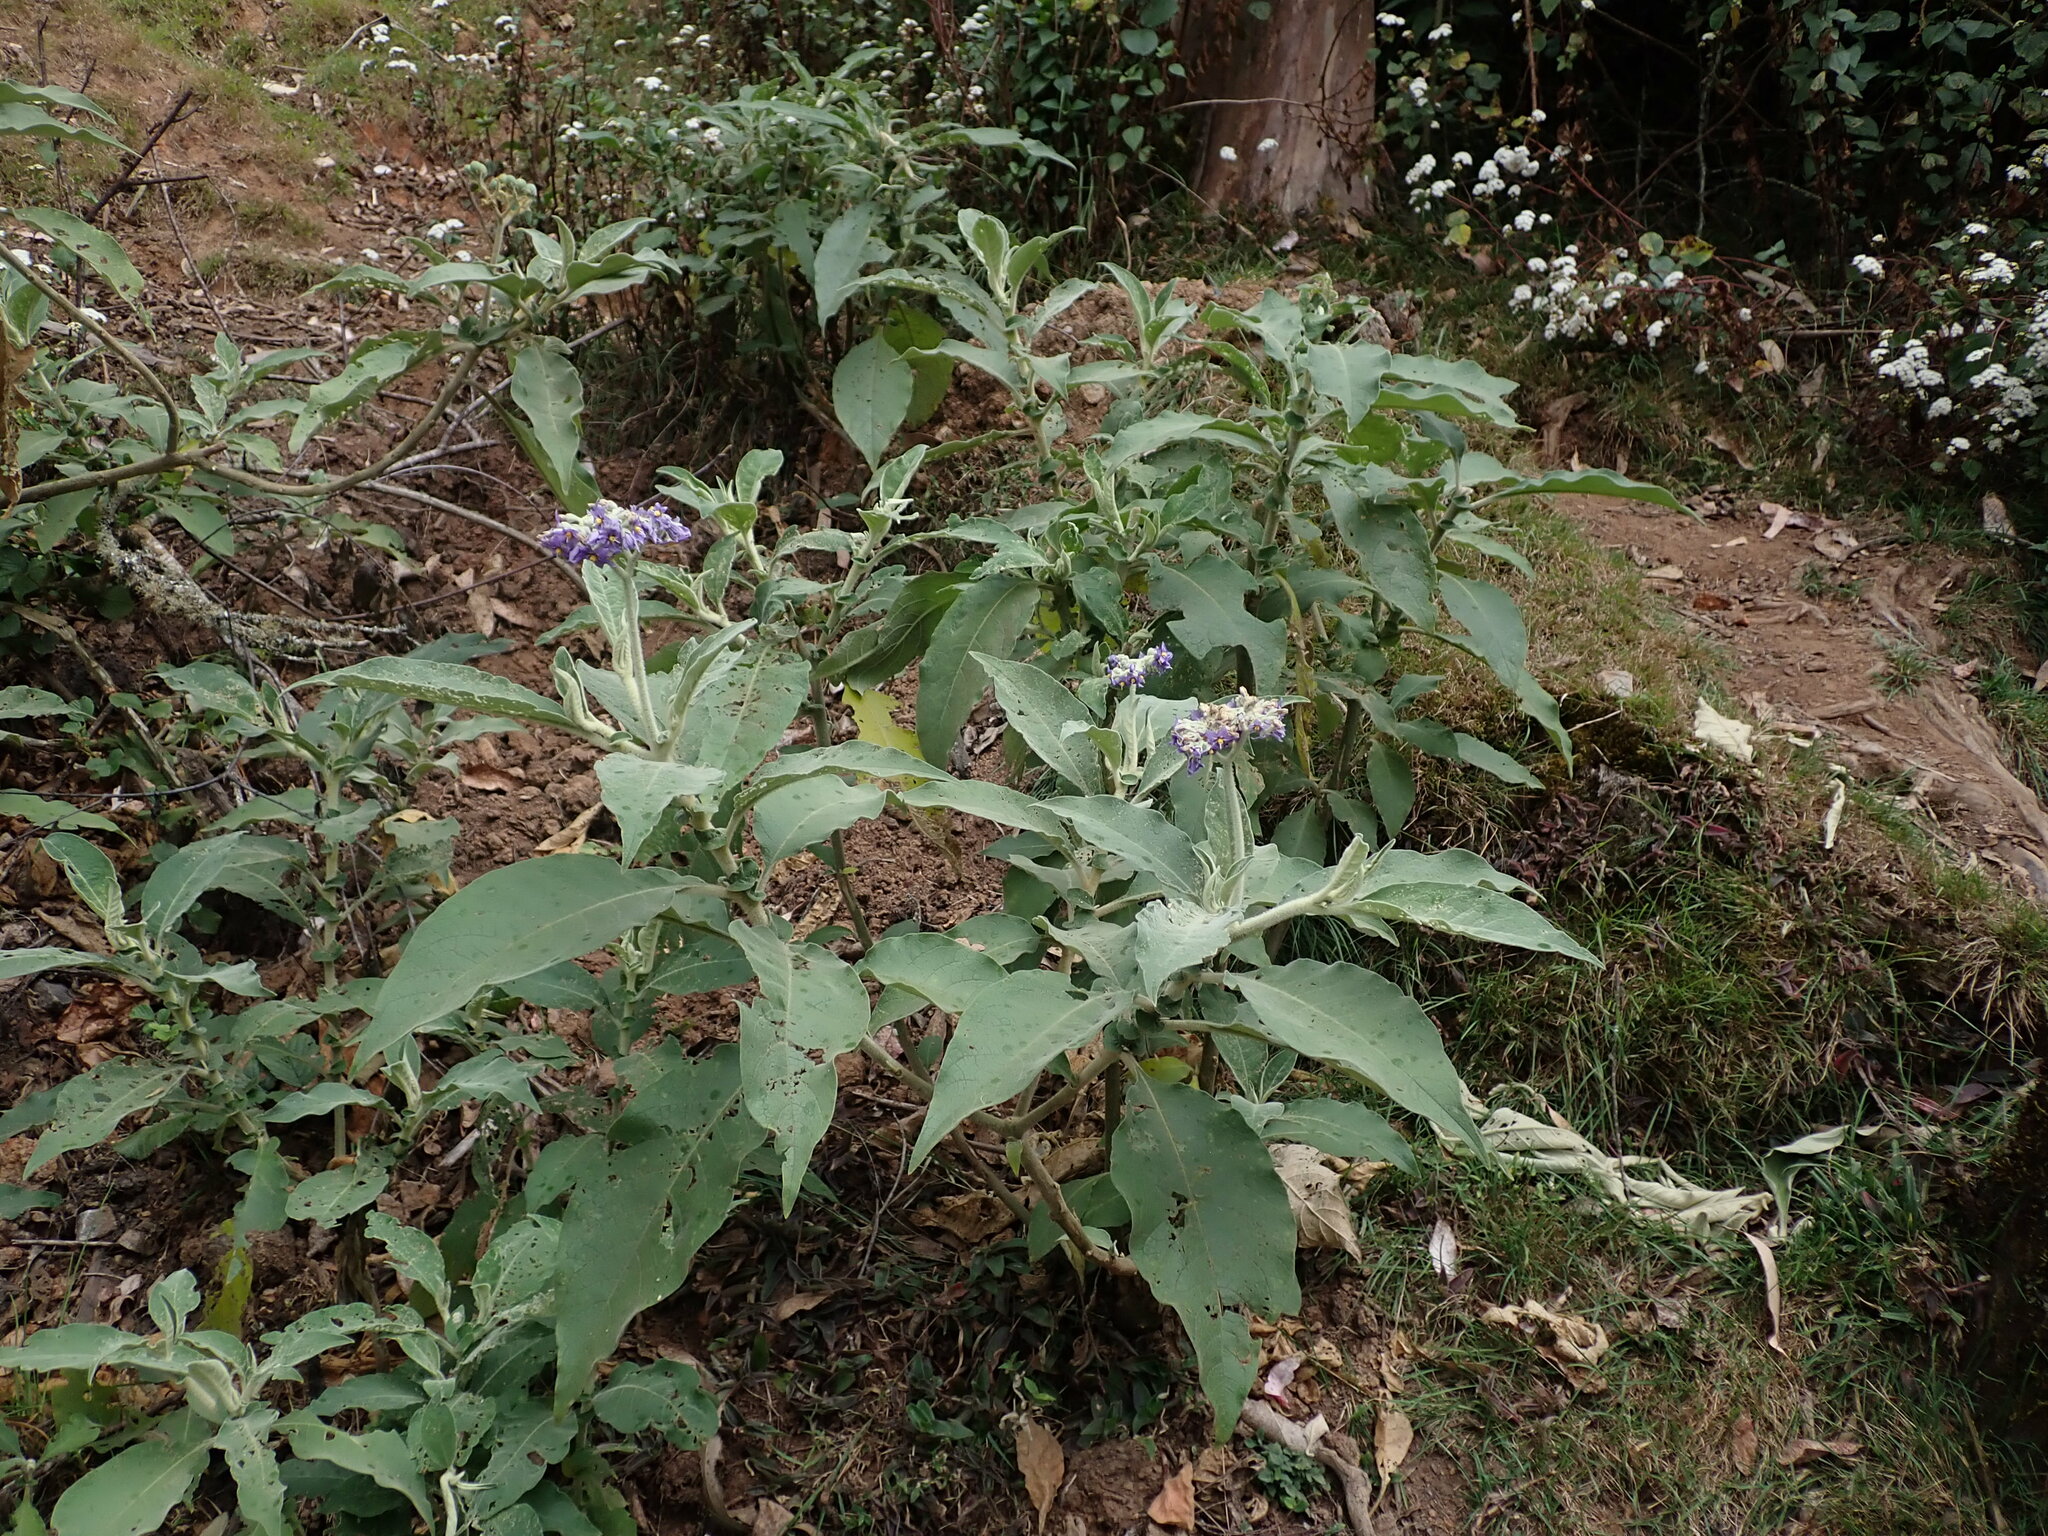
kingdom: Plantae
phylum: Tracheophyta
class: Magnoliopsida
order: Solanales
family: Solanaceae
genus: Solanum
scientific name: Solanum mauritianum
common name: Earleaf nightshade
